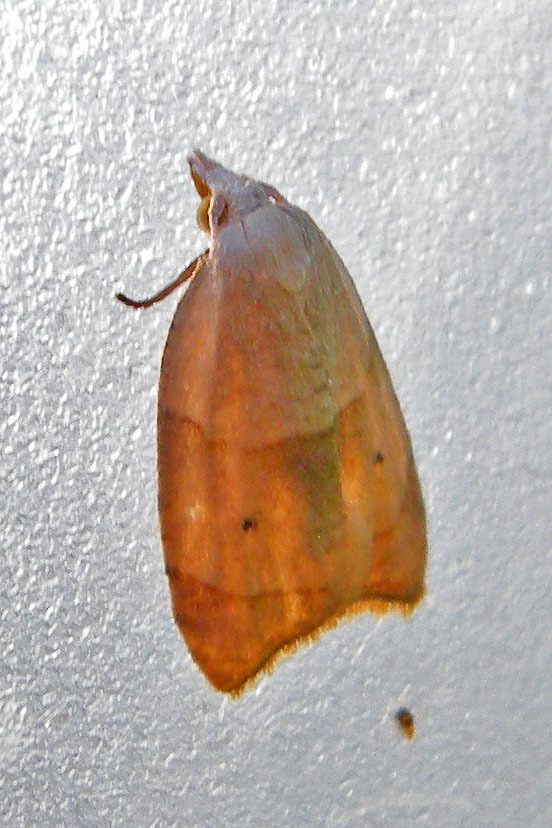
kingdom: Animalia
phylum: Arthropoda
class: Insecta
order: Lepidoptera
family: Tortricidae
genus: Coelostathma
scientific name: Coelostathma discopunctana
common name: Batman moth
